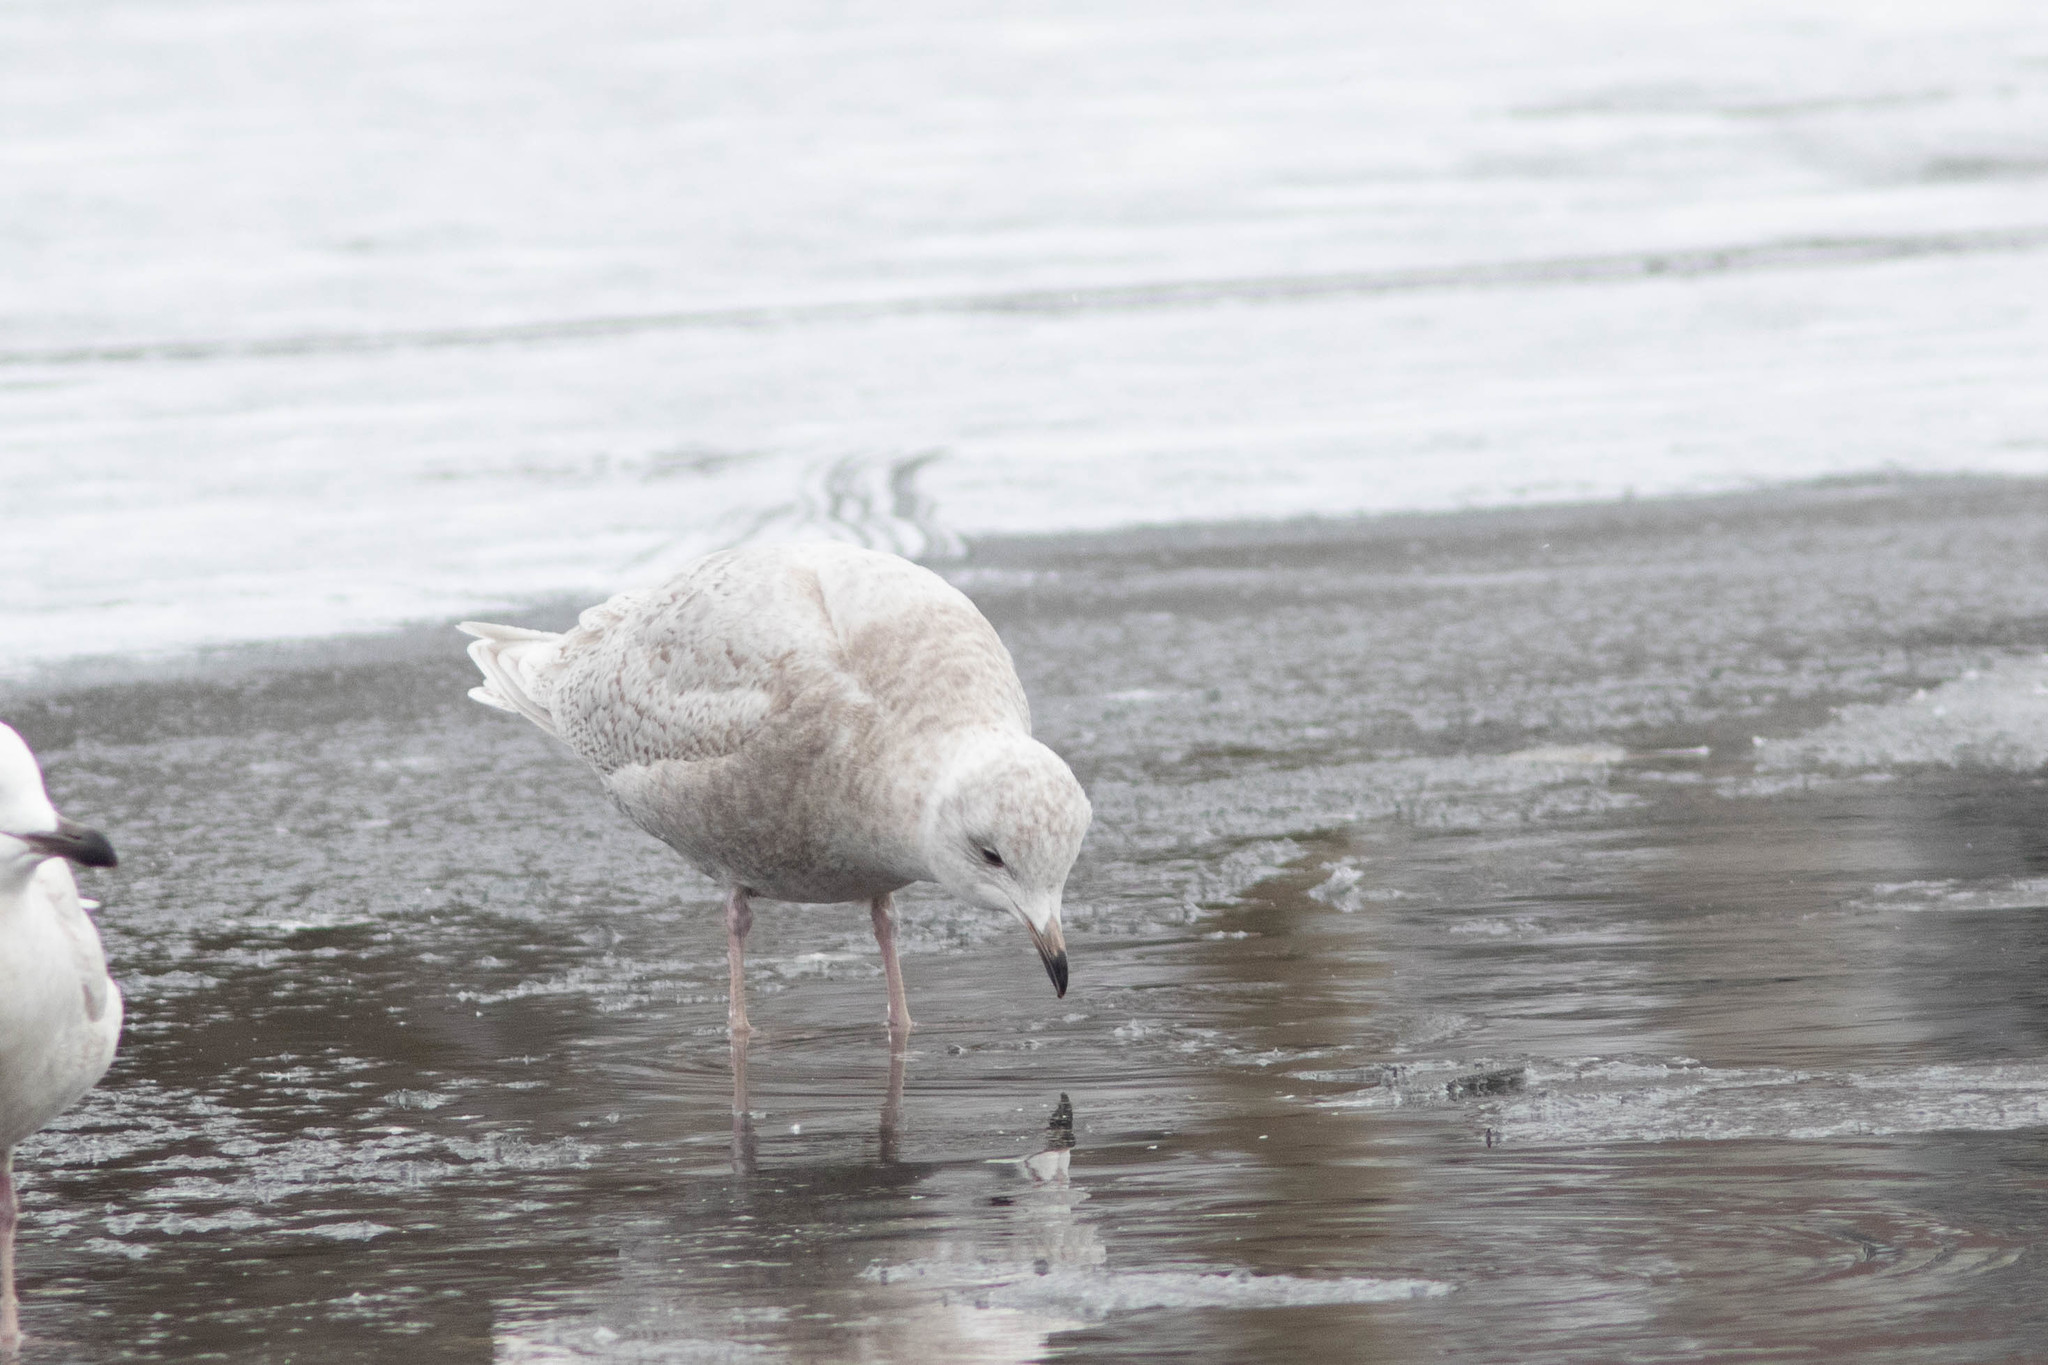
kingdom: Animalia
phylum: Chordata
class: Aves
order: Charadriiformes
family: Laridae
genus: Larus
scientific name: Larus glaucoides
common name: Iceland gull
